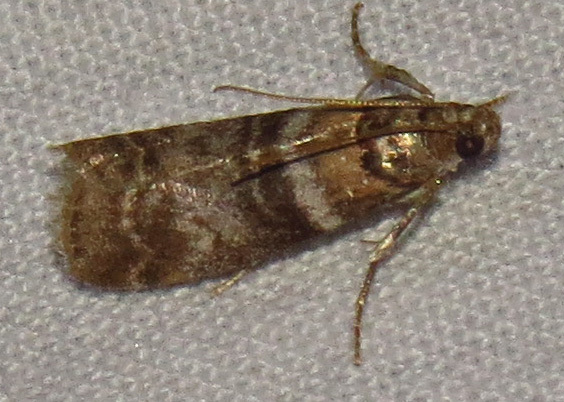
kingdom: Animalia
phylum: Arthropoda
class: Insecta
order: Lepidoptera
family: Pyralidae
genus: Sciota
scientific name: Sciota uvinella
